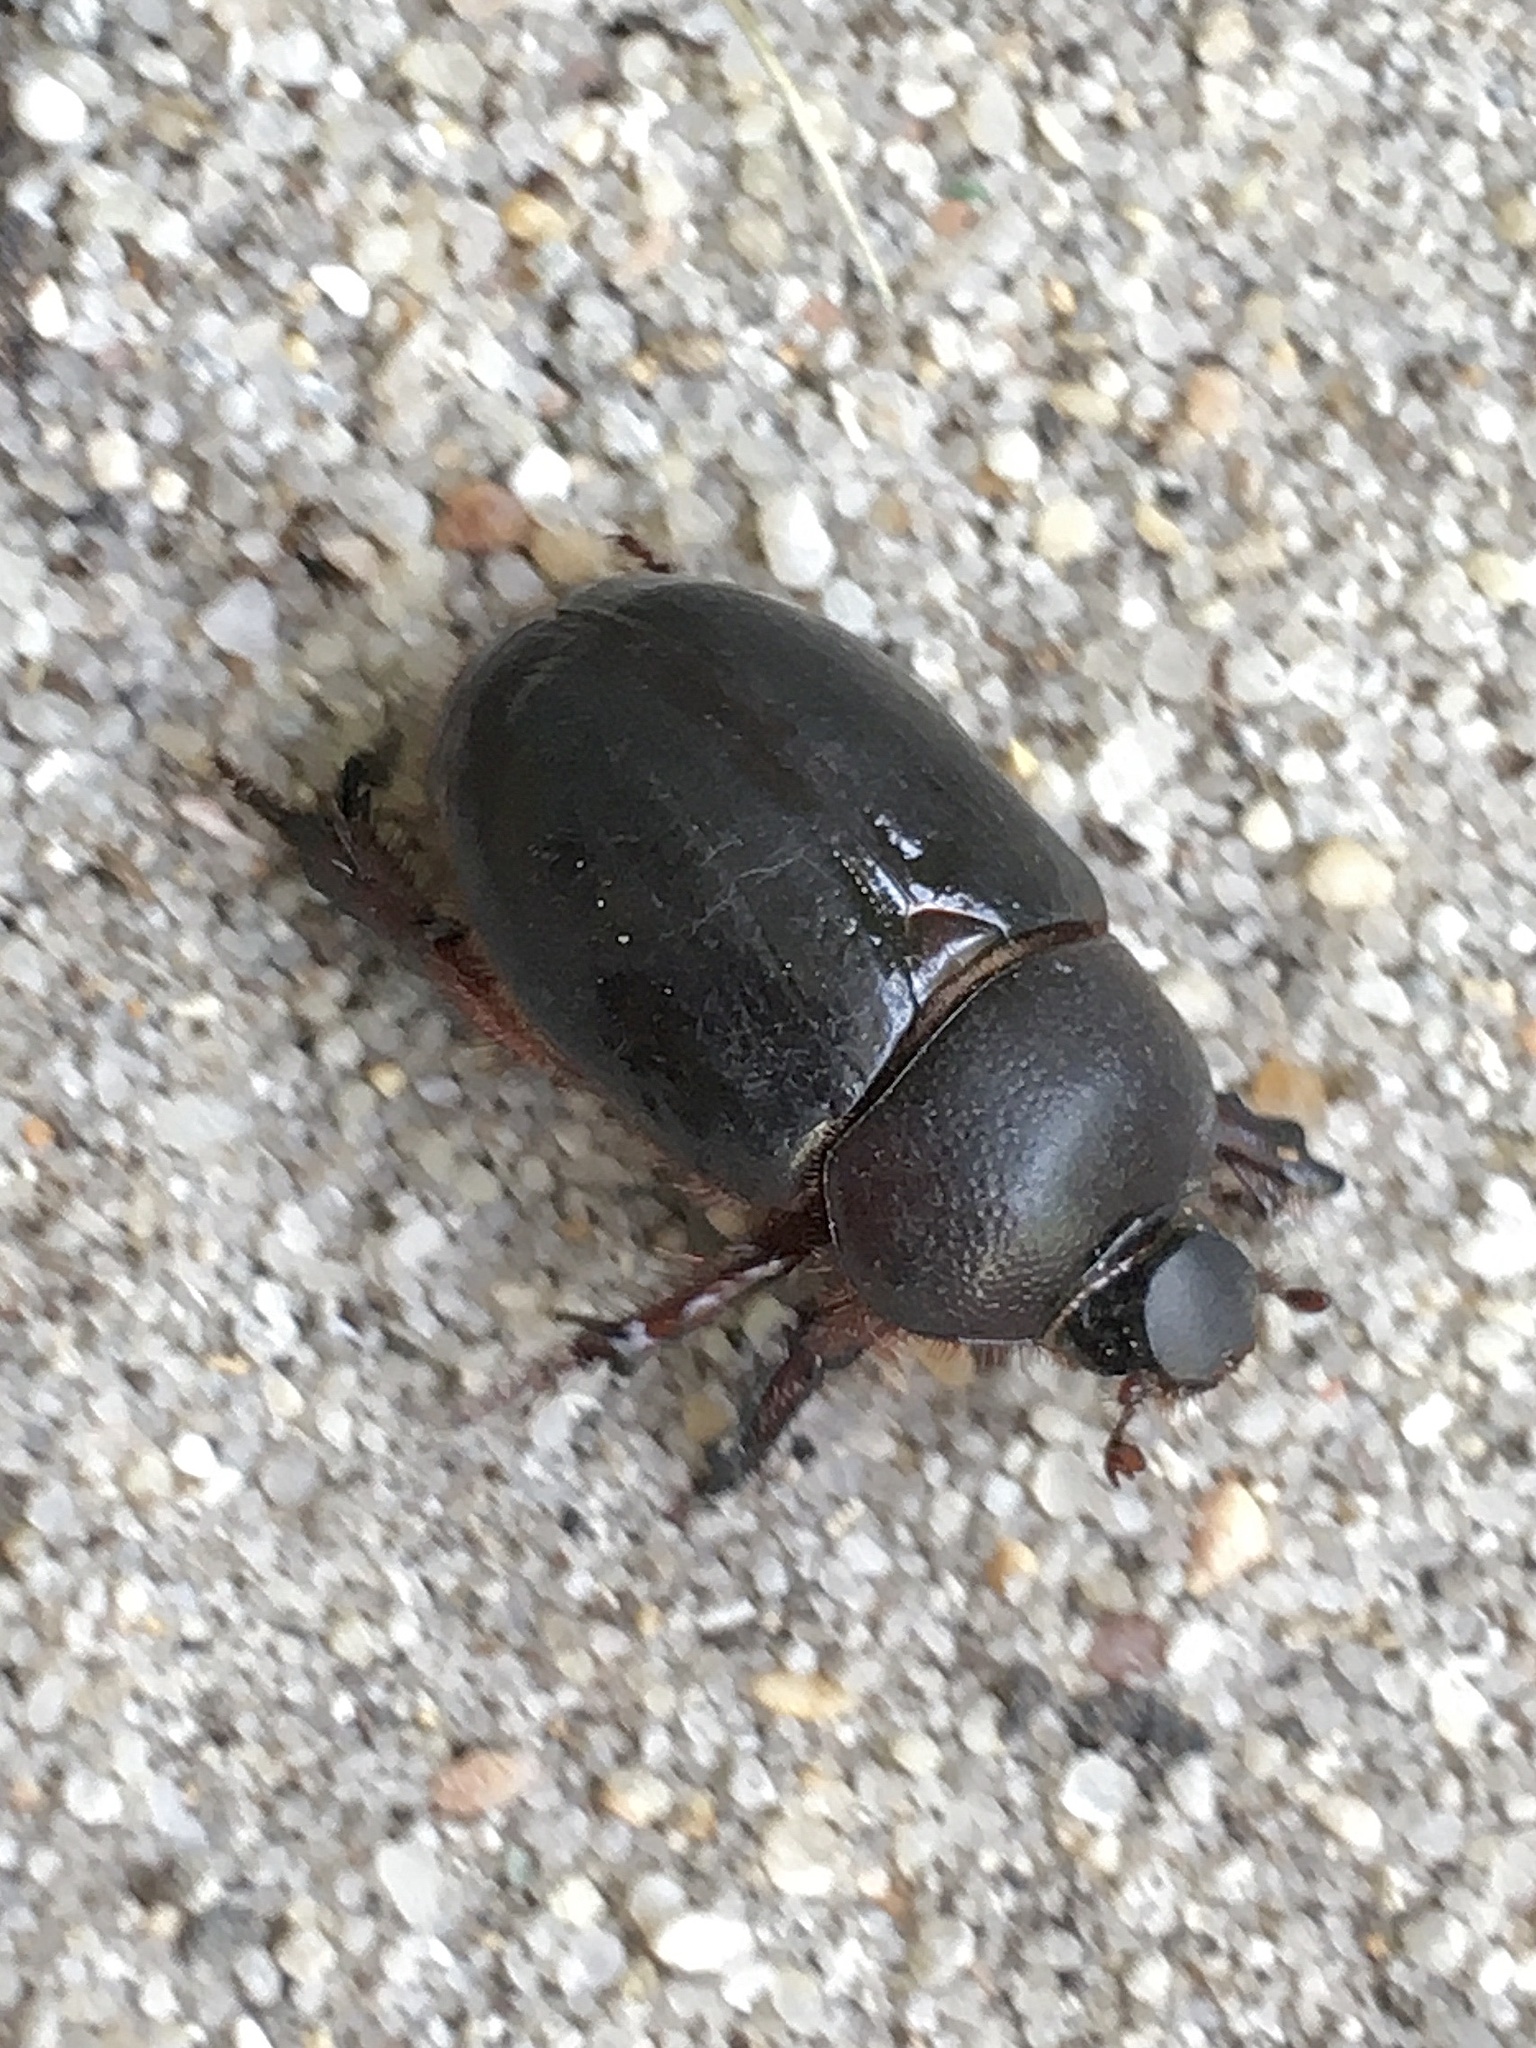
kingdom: Animalia
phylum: Arthropoda
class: Insecta
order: Coleoptera
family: Scarabaeidae
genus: Temnorhynchus
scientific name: Temnorhynchus retusus
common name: Plate-faced beetle
